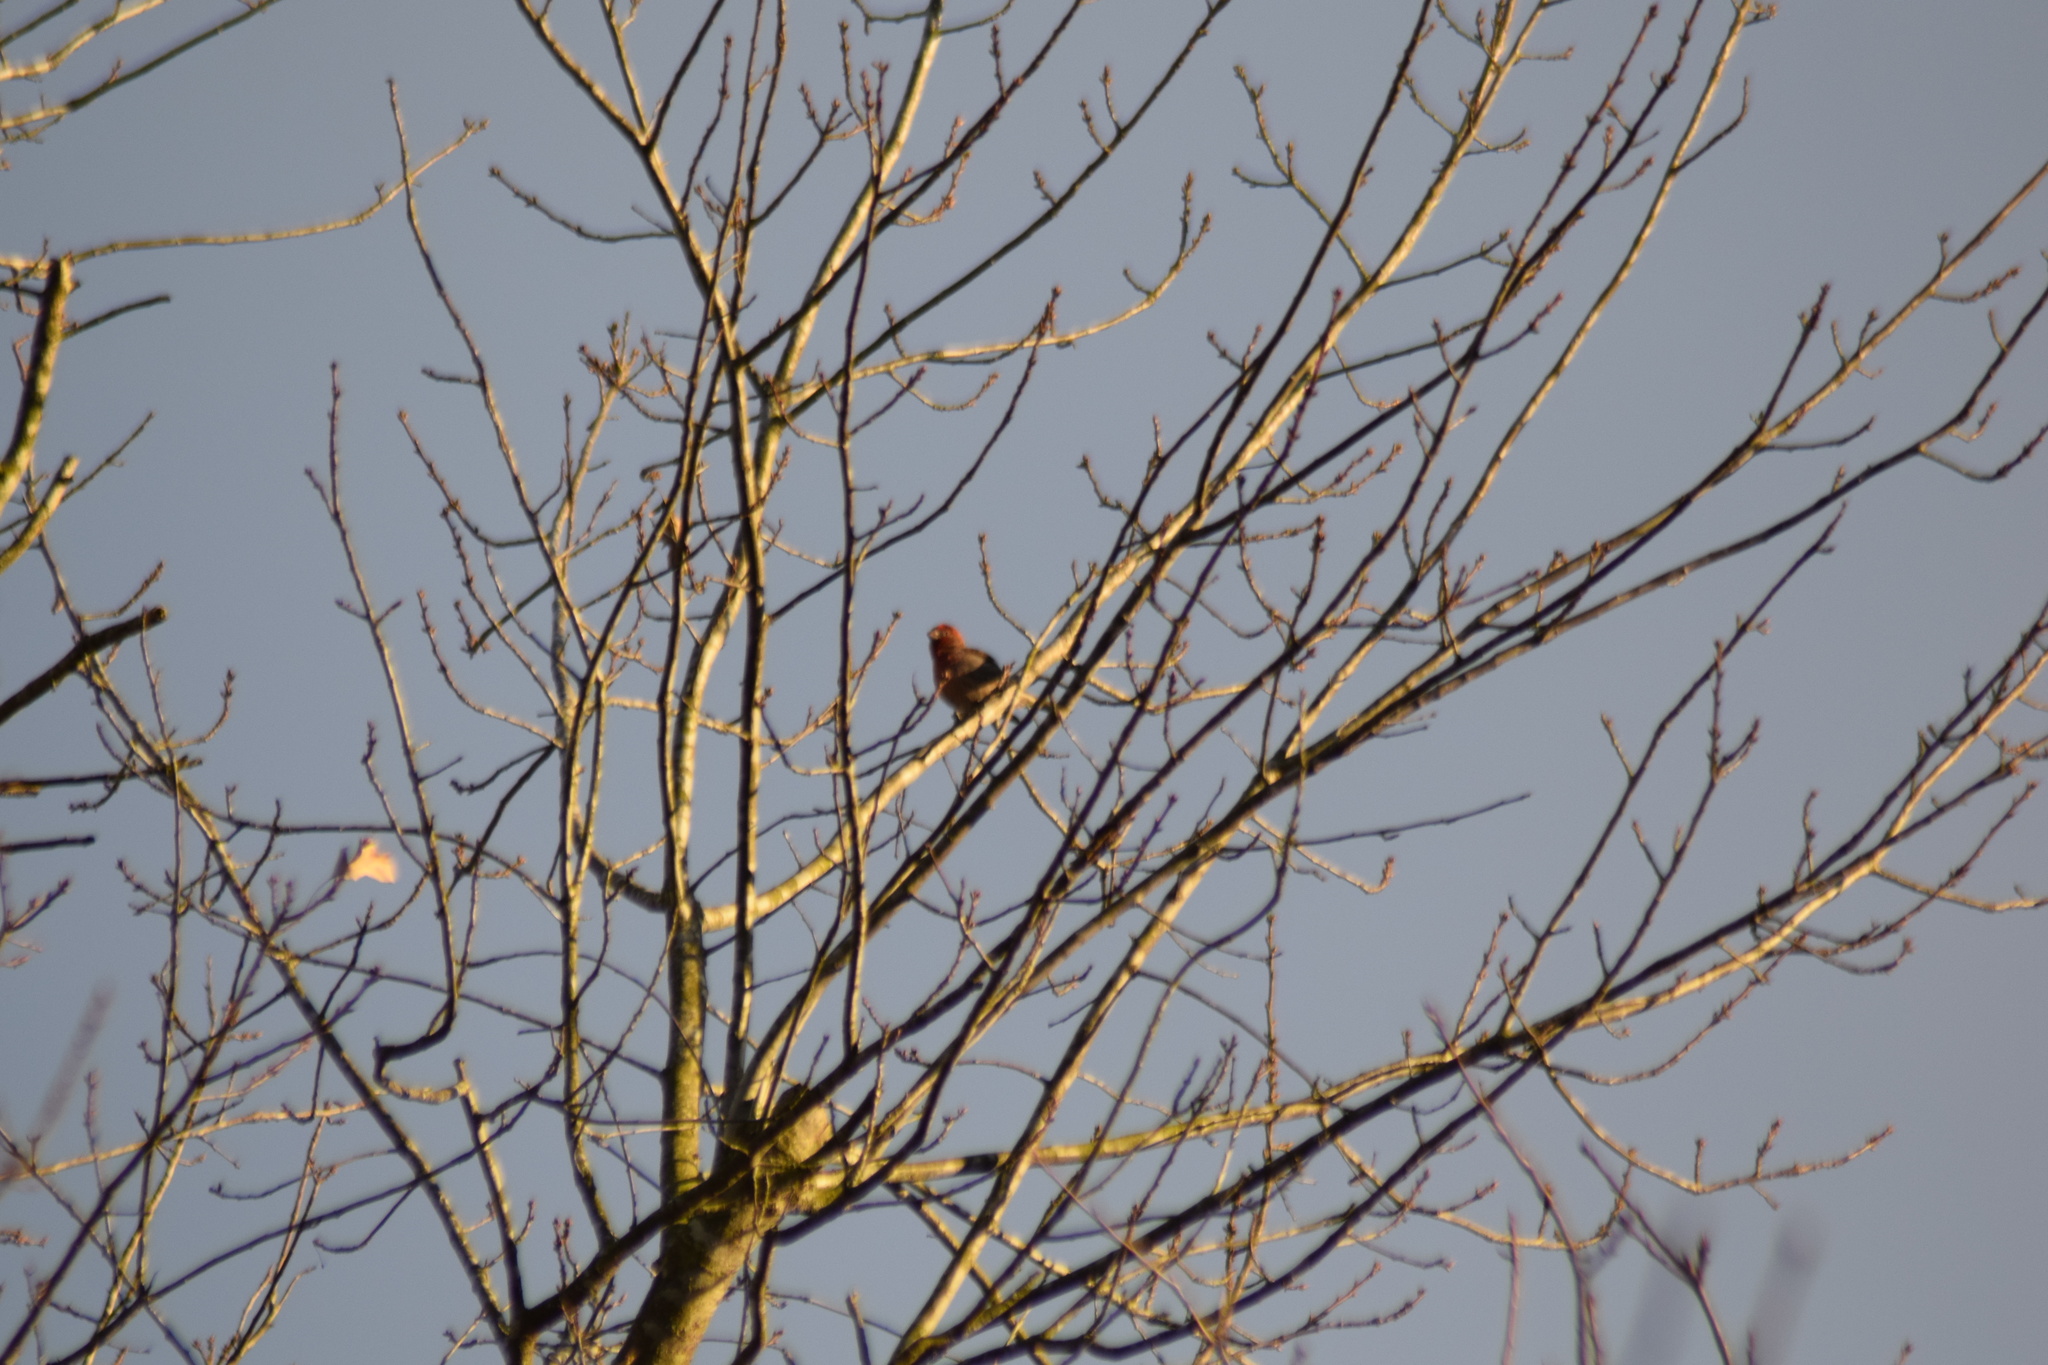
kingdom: Animalia
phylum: Chordata
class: Aves
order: Passeriformes
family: Fringillidae
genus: Haemorhous
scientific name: Haemorhous mexicanus
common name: House finch
